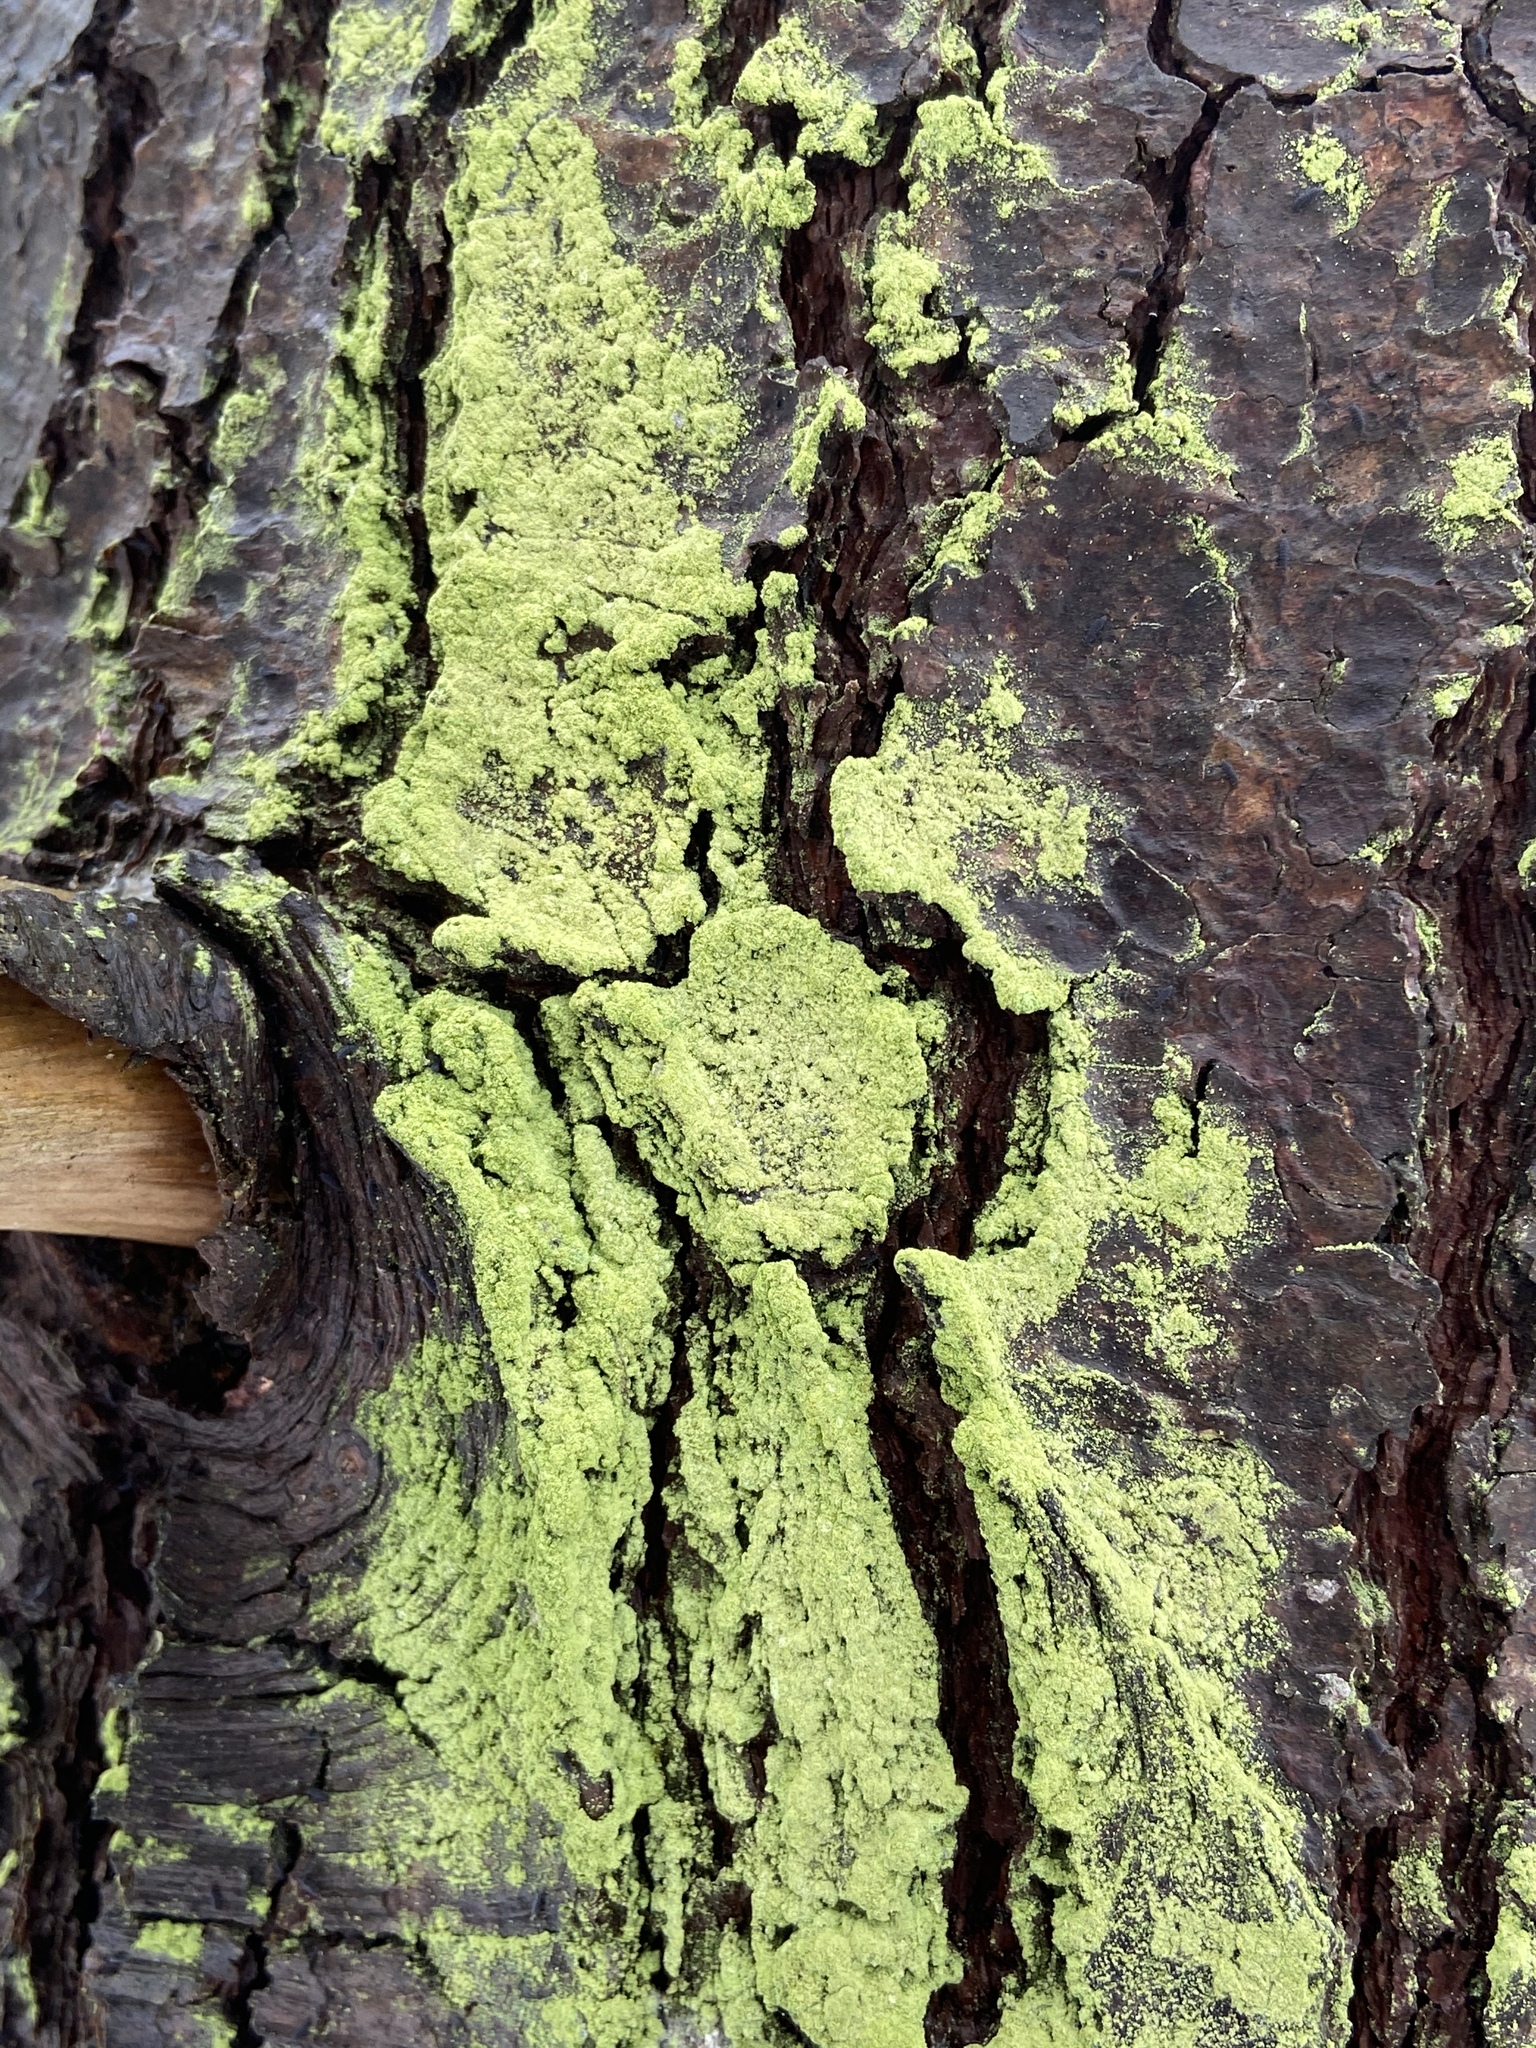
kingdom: Fungi
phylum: Ascomycota
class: Lecanoromycetes
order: Schaereriales
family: Schaereriaceae
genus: Ropalospora
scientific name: Ropalospora viridis
